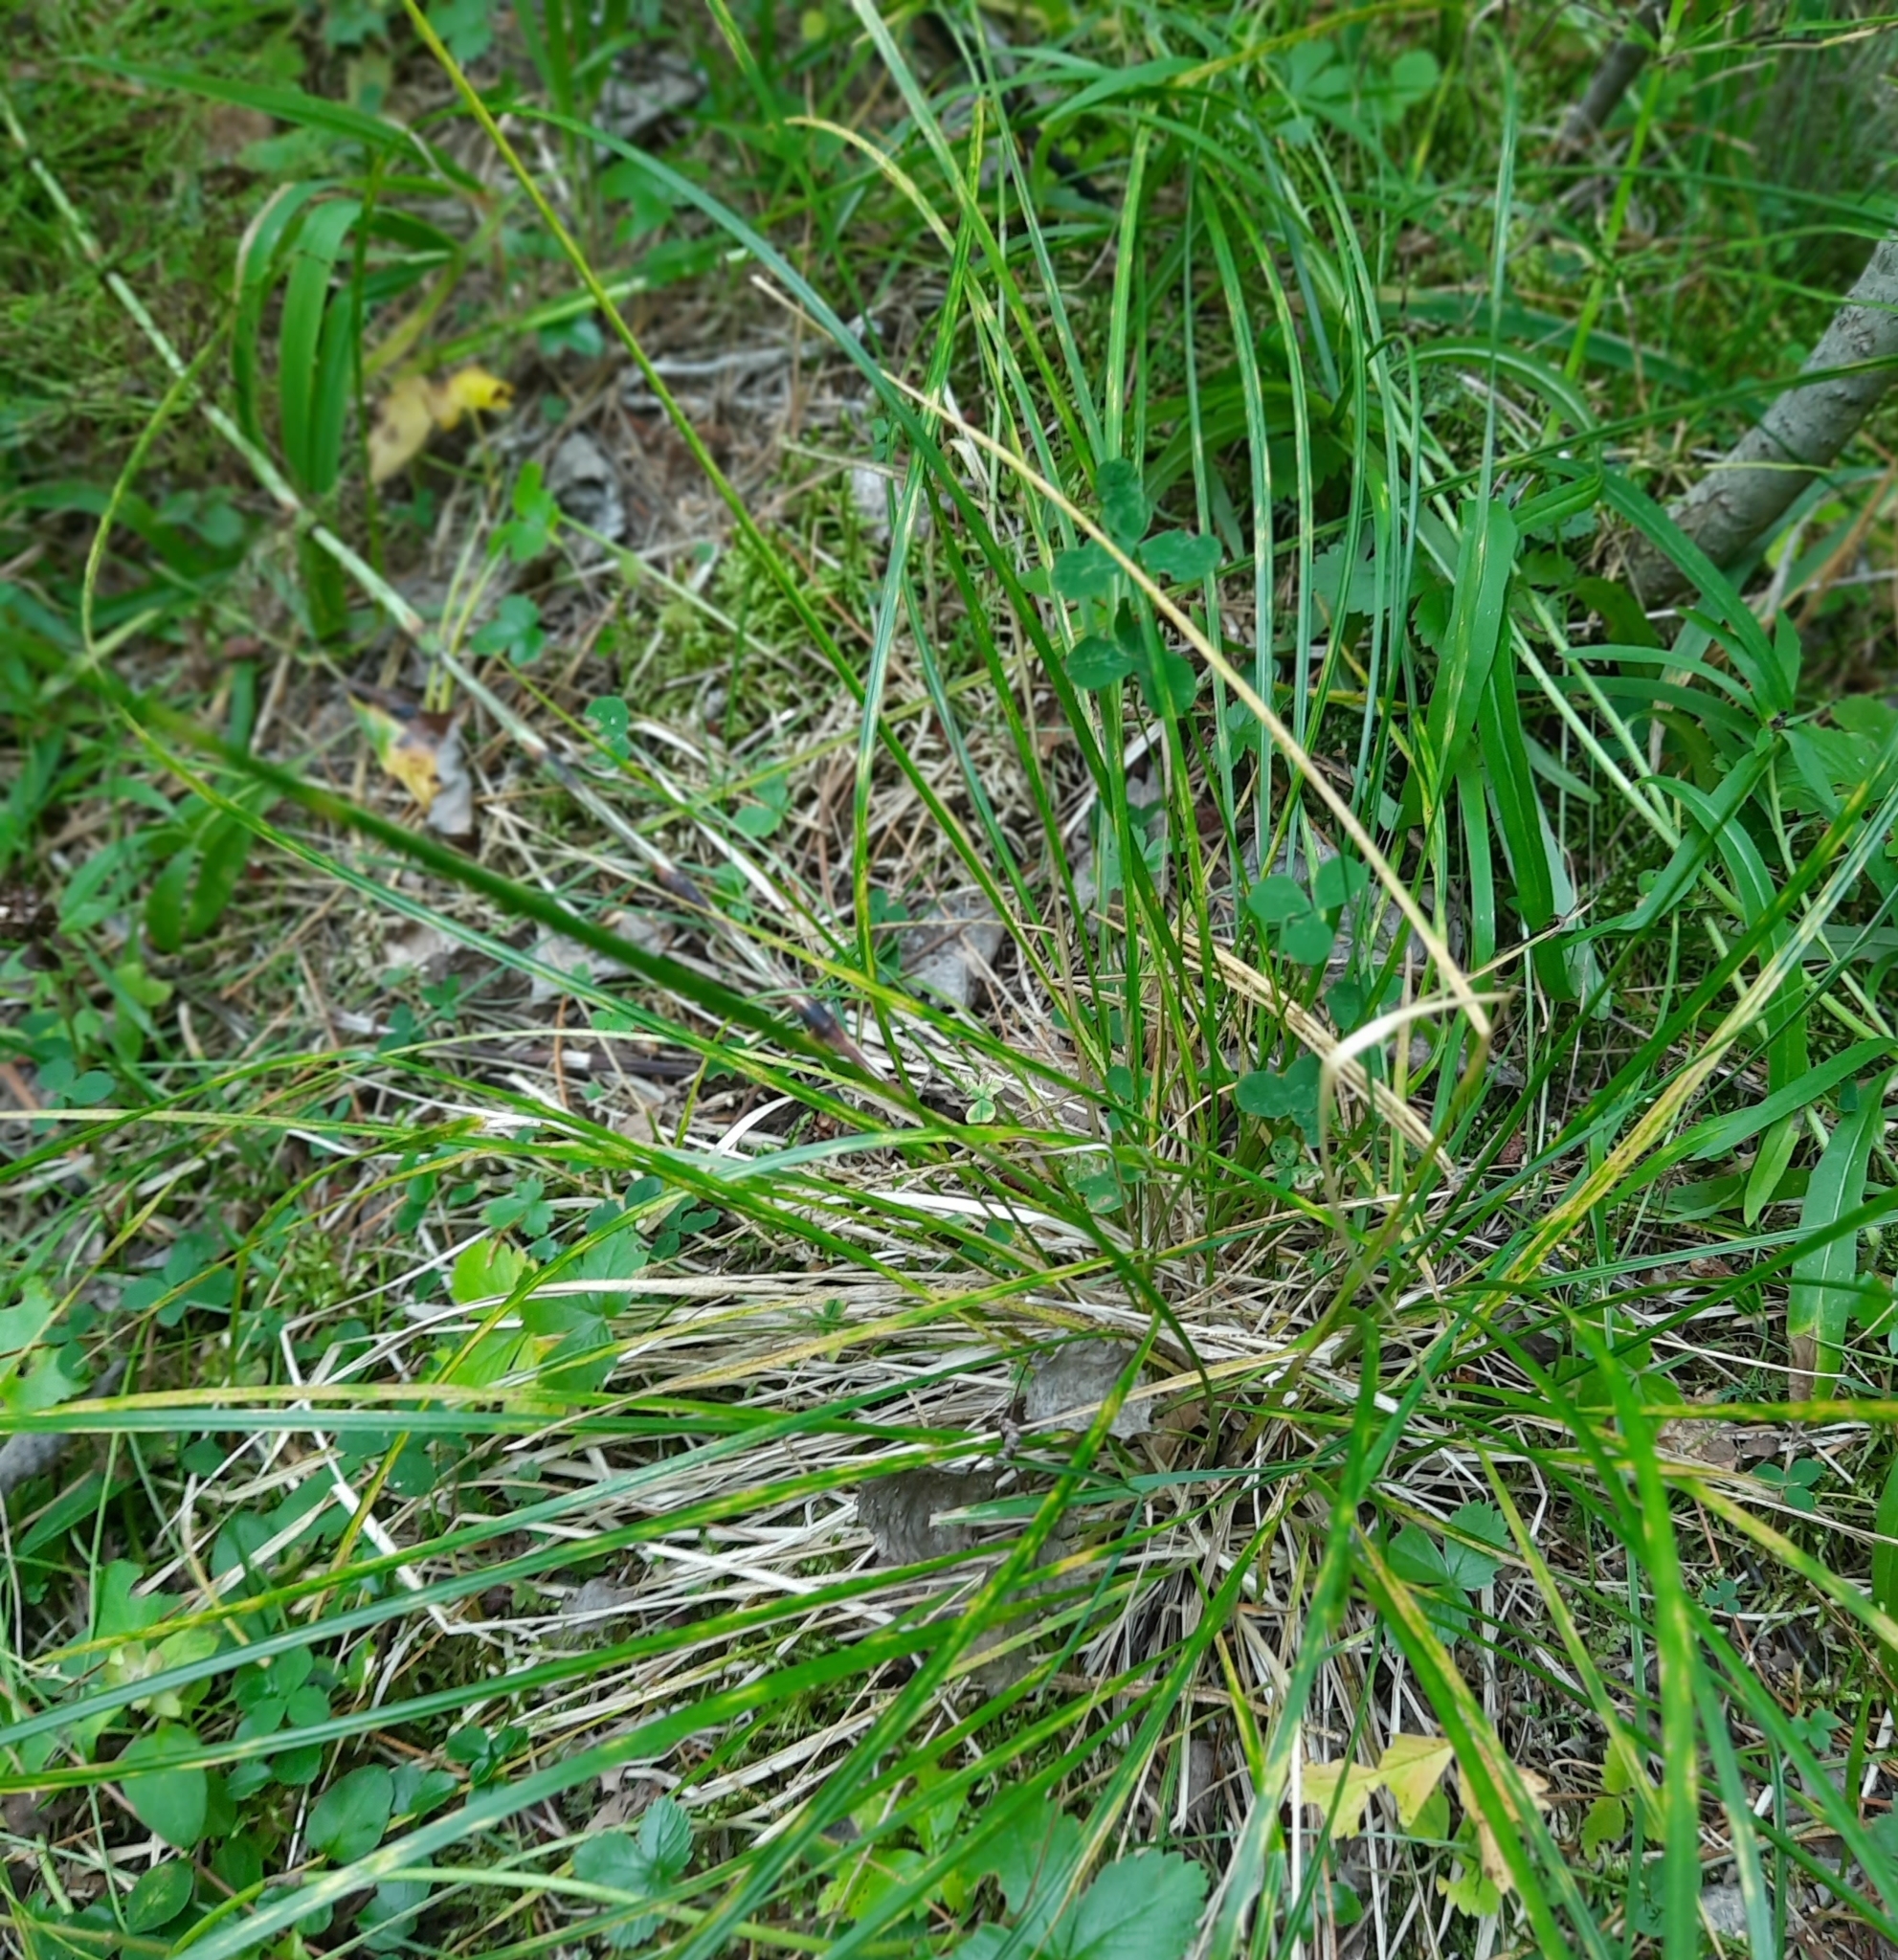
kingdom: Plantae
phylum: Tracheophyta
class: Liliopsida
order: Poales
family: Poaceae
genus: Deschampsia
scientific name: Deschampsia cespitosa
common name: Tufted hair-grass
